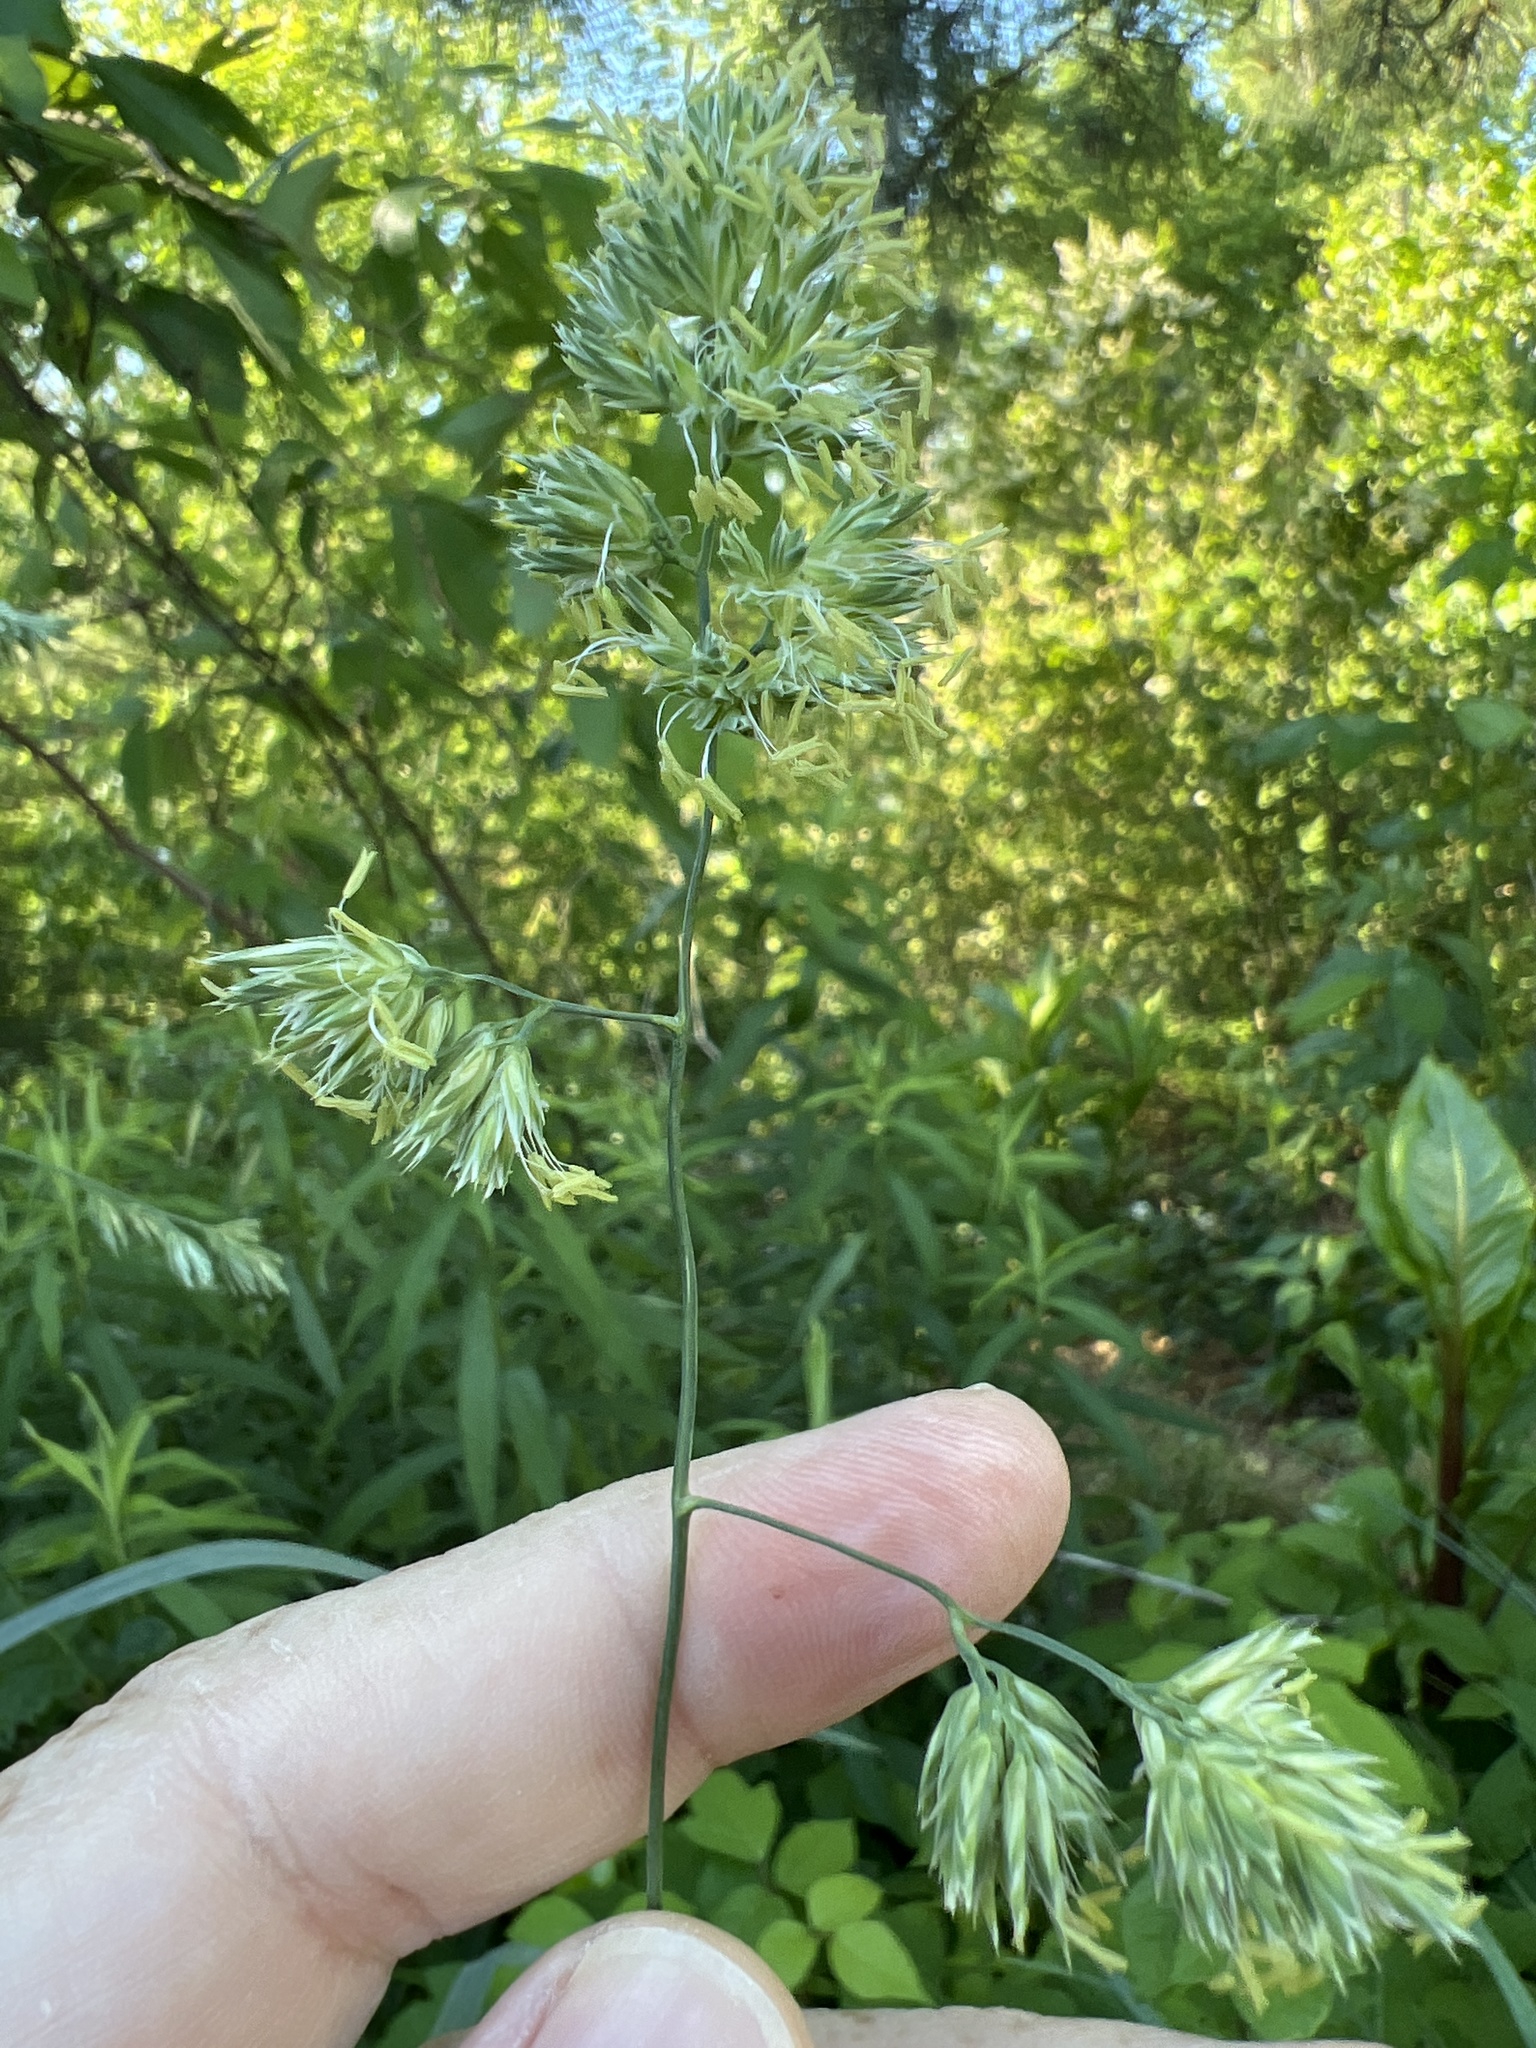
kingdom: Plantae
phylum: Tracheophyta
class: Liliopsida
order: Poales
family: Poaceae
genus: Dactylis
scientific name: Dactylis glomerata
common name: Orchardgrass
